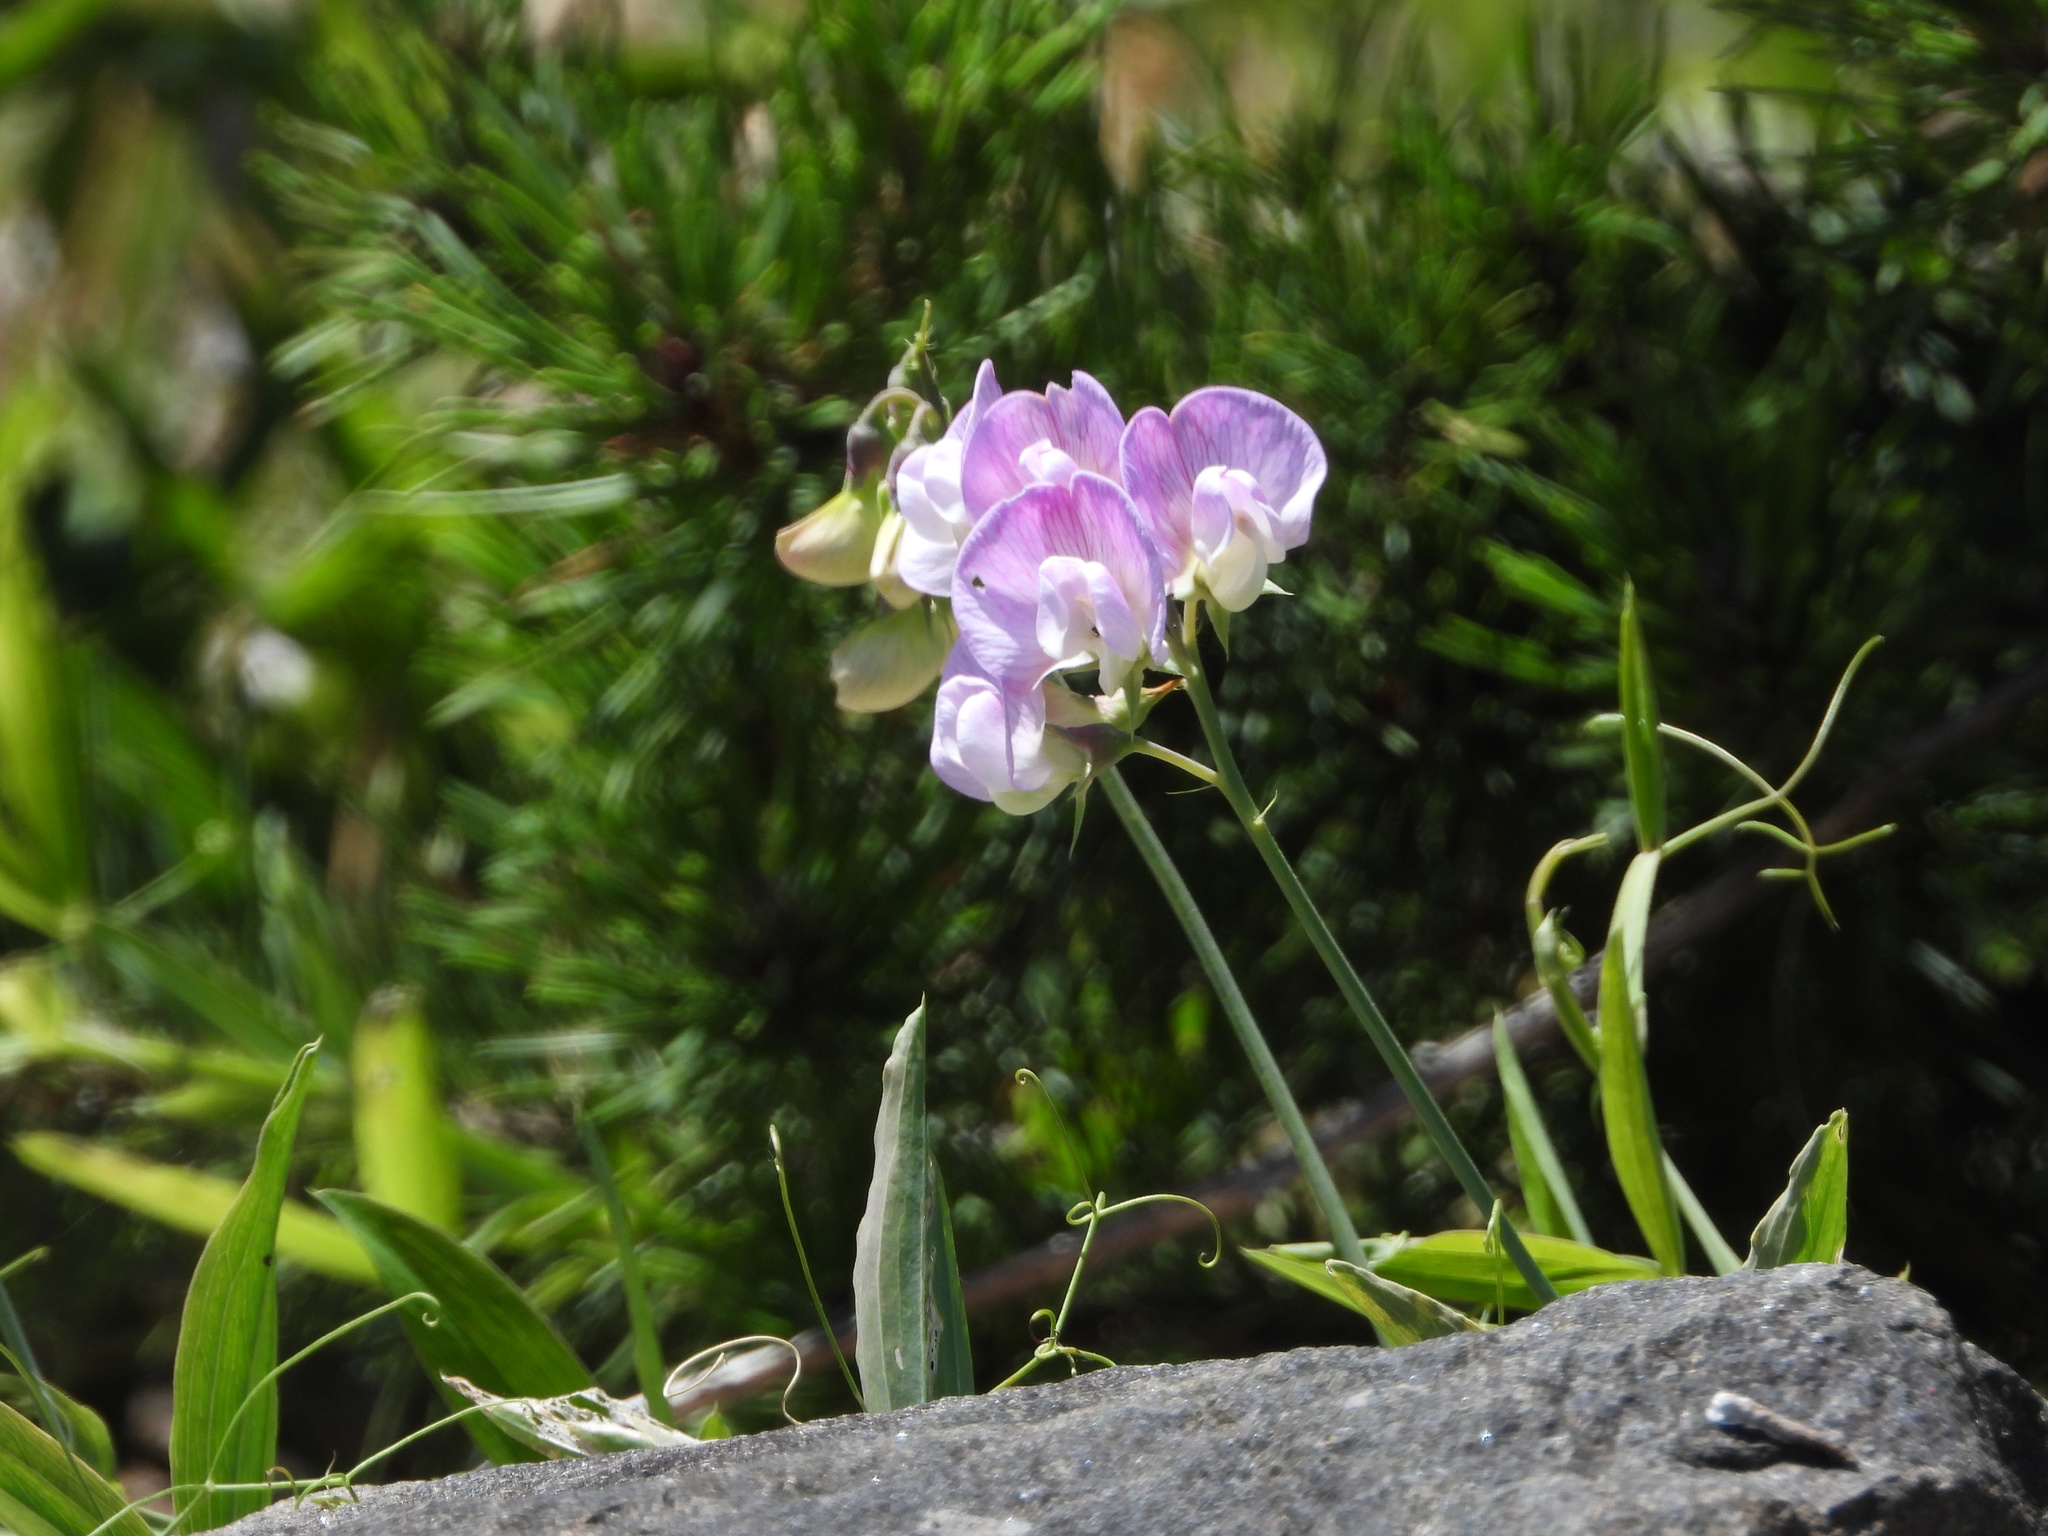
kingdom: Plantae
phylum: Tracheophyta
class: Magnoliopsida
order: Fabales
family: Fabaceae
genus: Lathyrus
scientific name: Lathyrus latifolius
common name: Perennial pea
